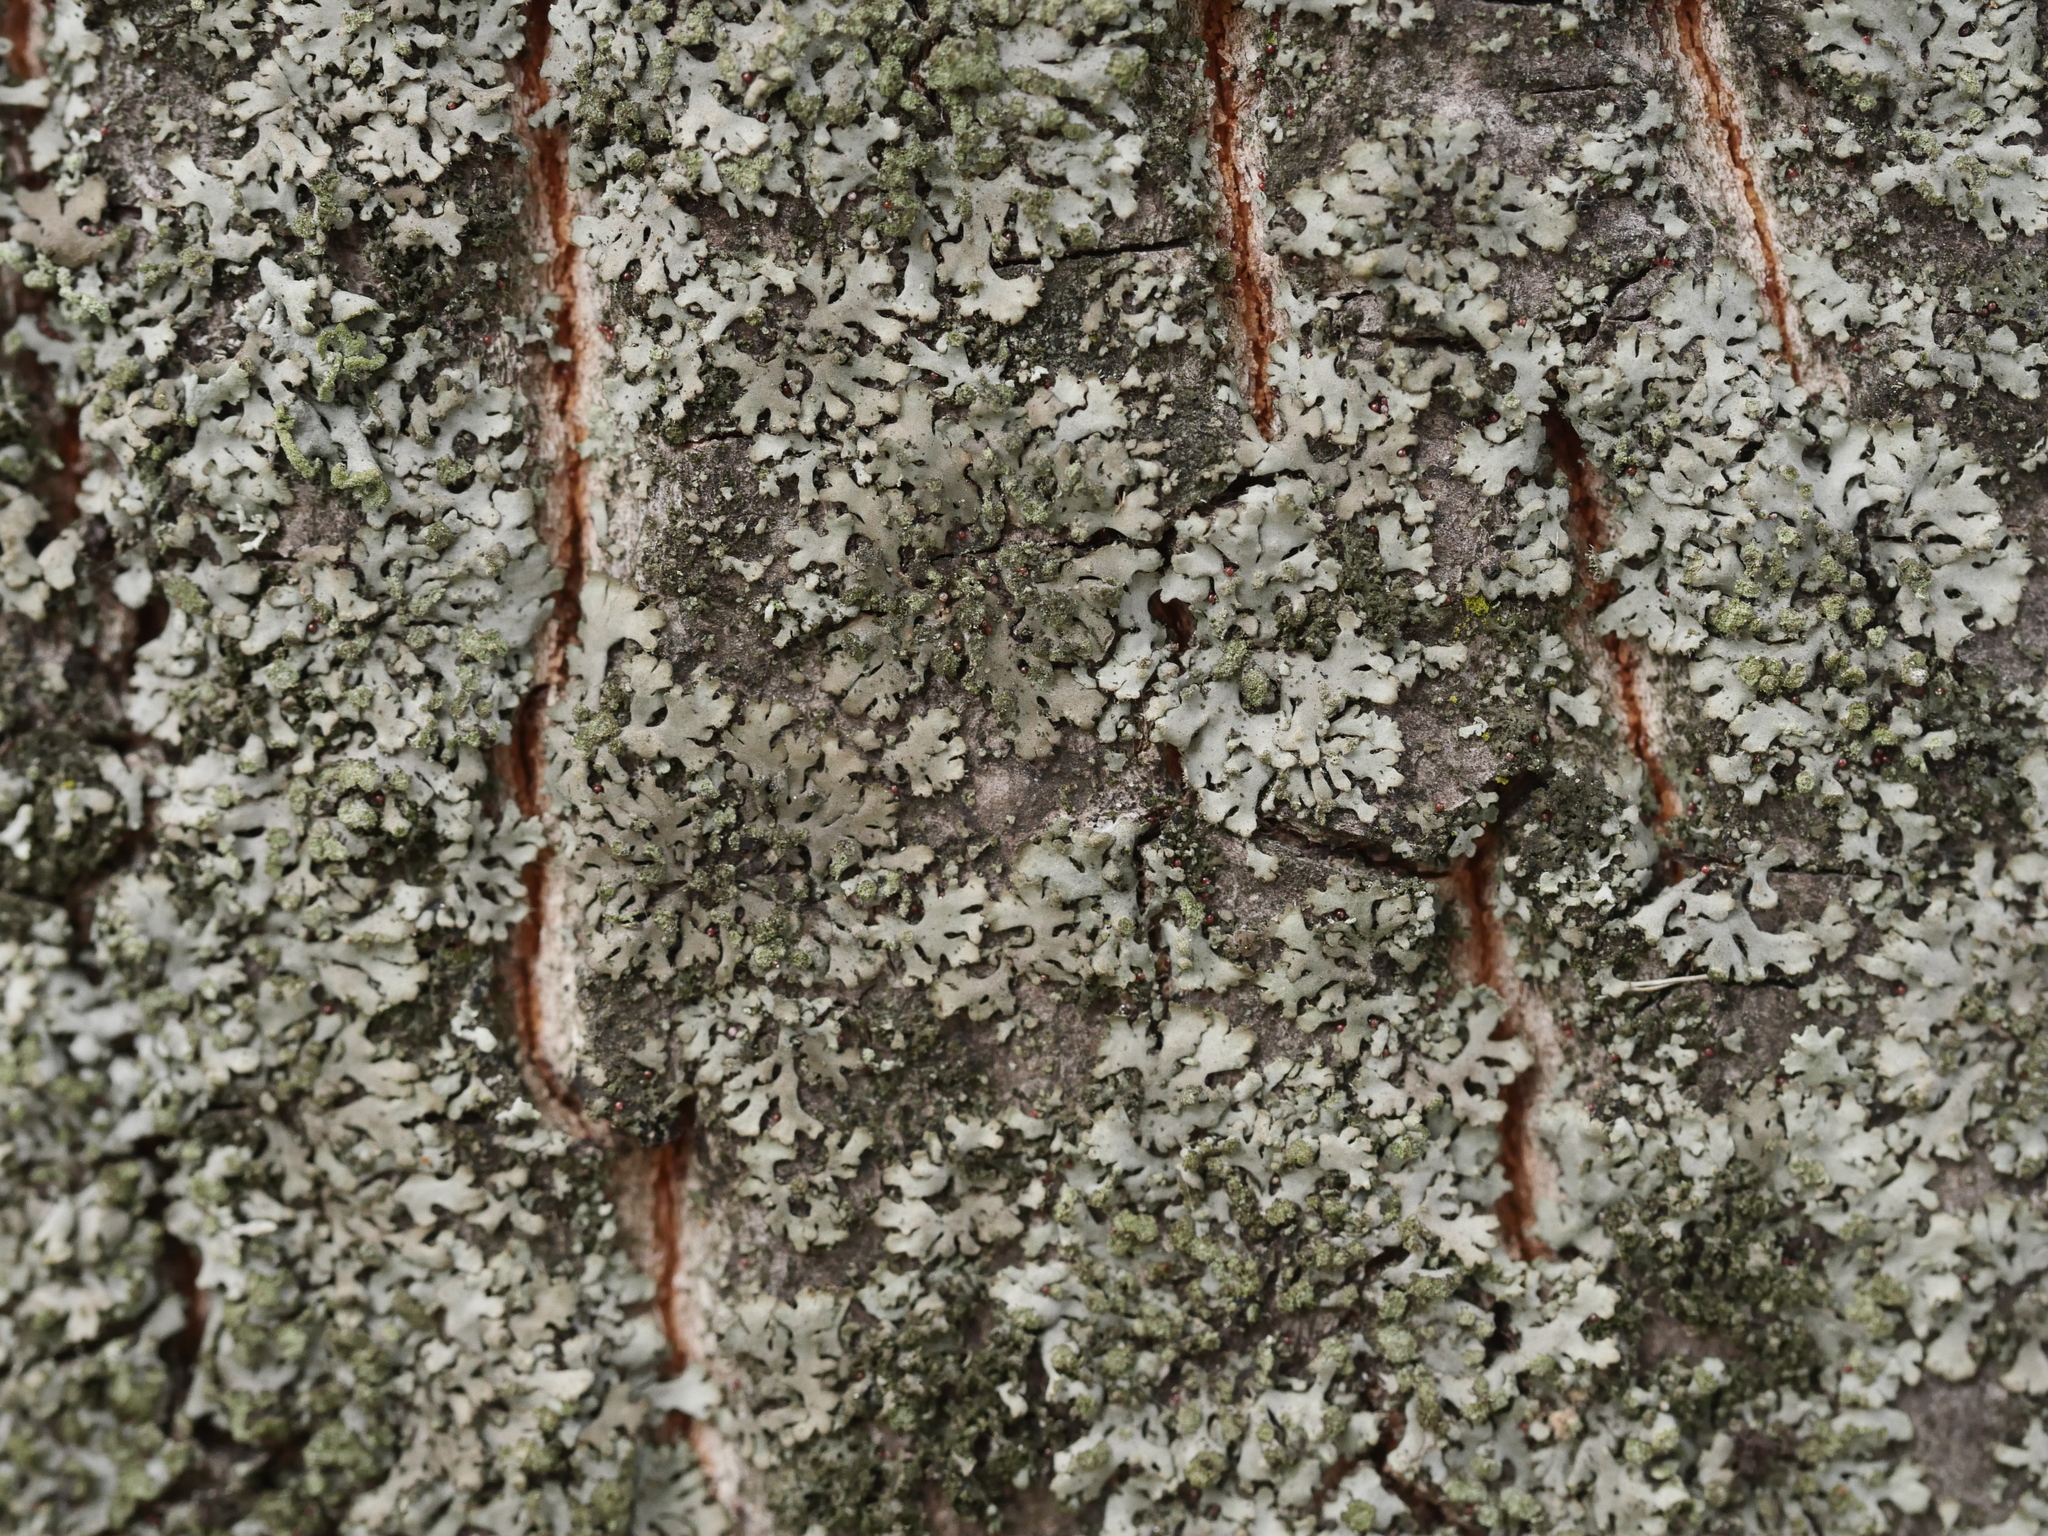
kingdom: Fungi
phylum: Ascomycota
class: Lecanoromycetes
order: Caliciales
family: Physciaceae
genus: Phaeophyscia
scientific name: Phaeophyscia orbicularis
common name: Mealy shadow lichen
